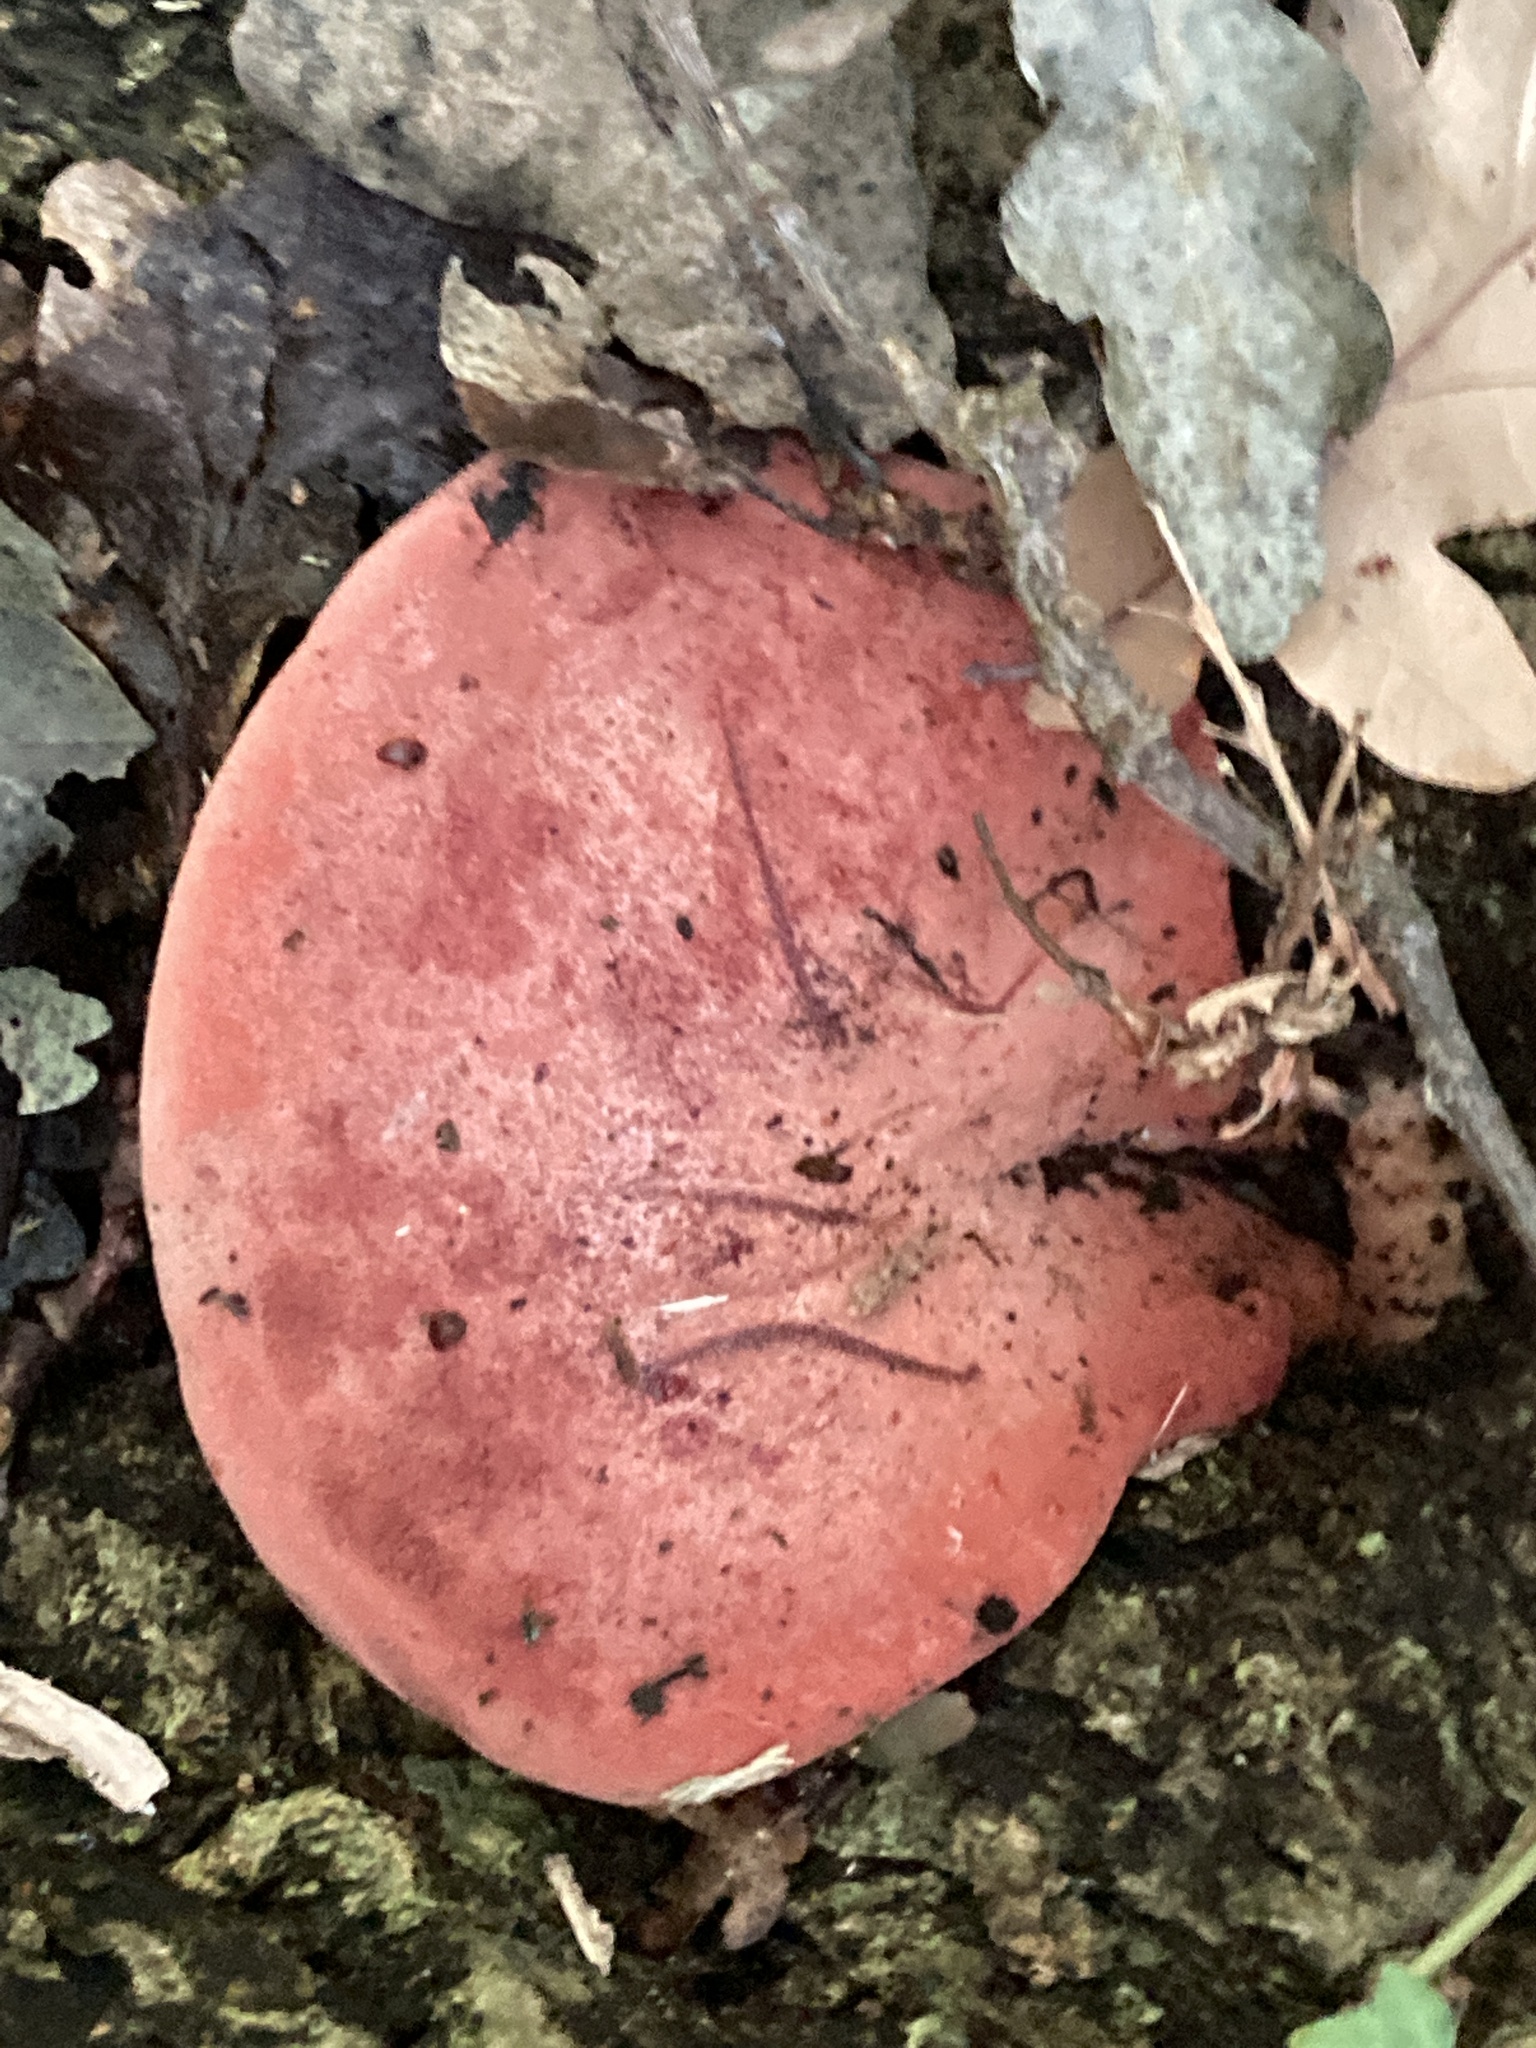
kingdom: Fungi
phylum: Basidiomycota
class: Agaricomycetes
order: Agaricales
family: Fistulinaceae
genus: Fistulina
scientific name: Fistulina hepatica
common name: Beef-steak fungus
